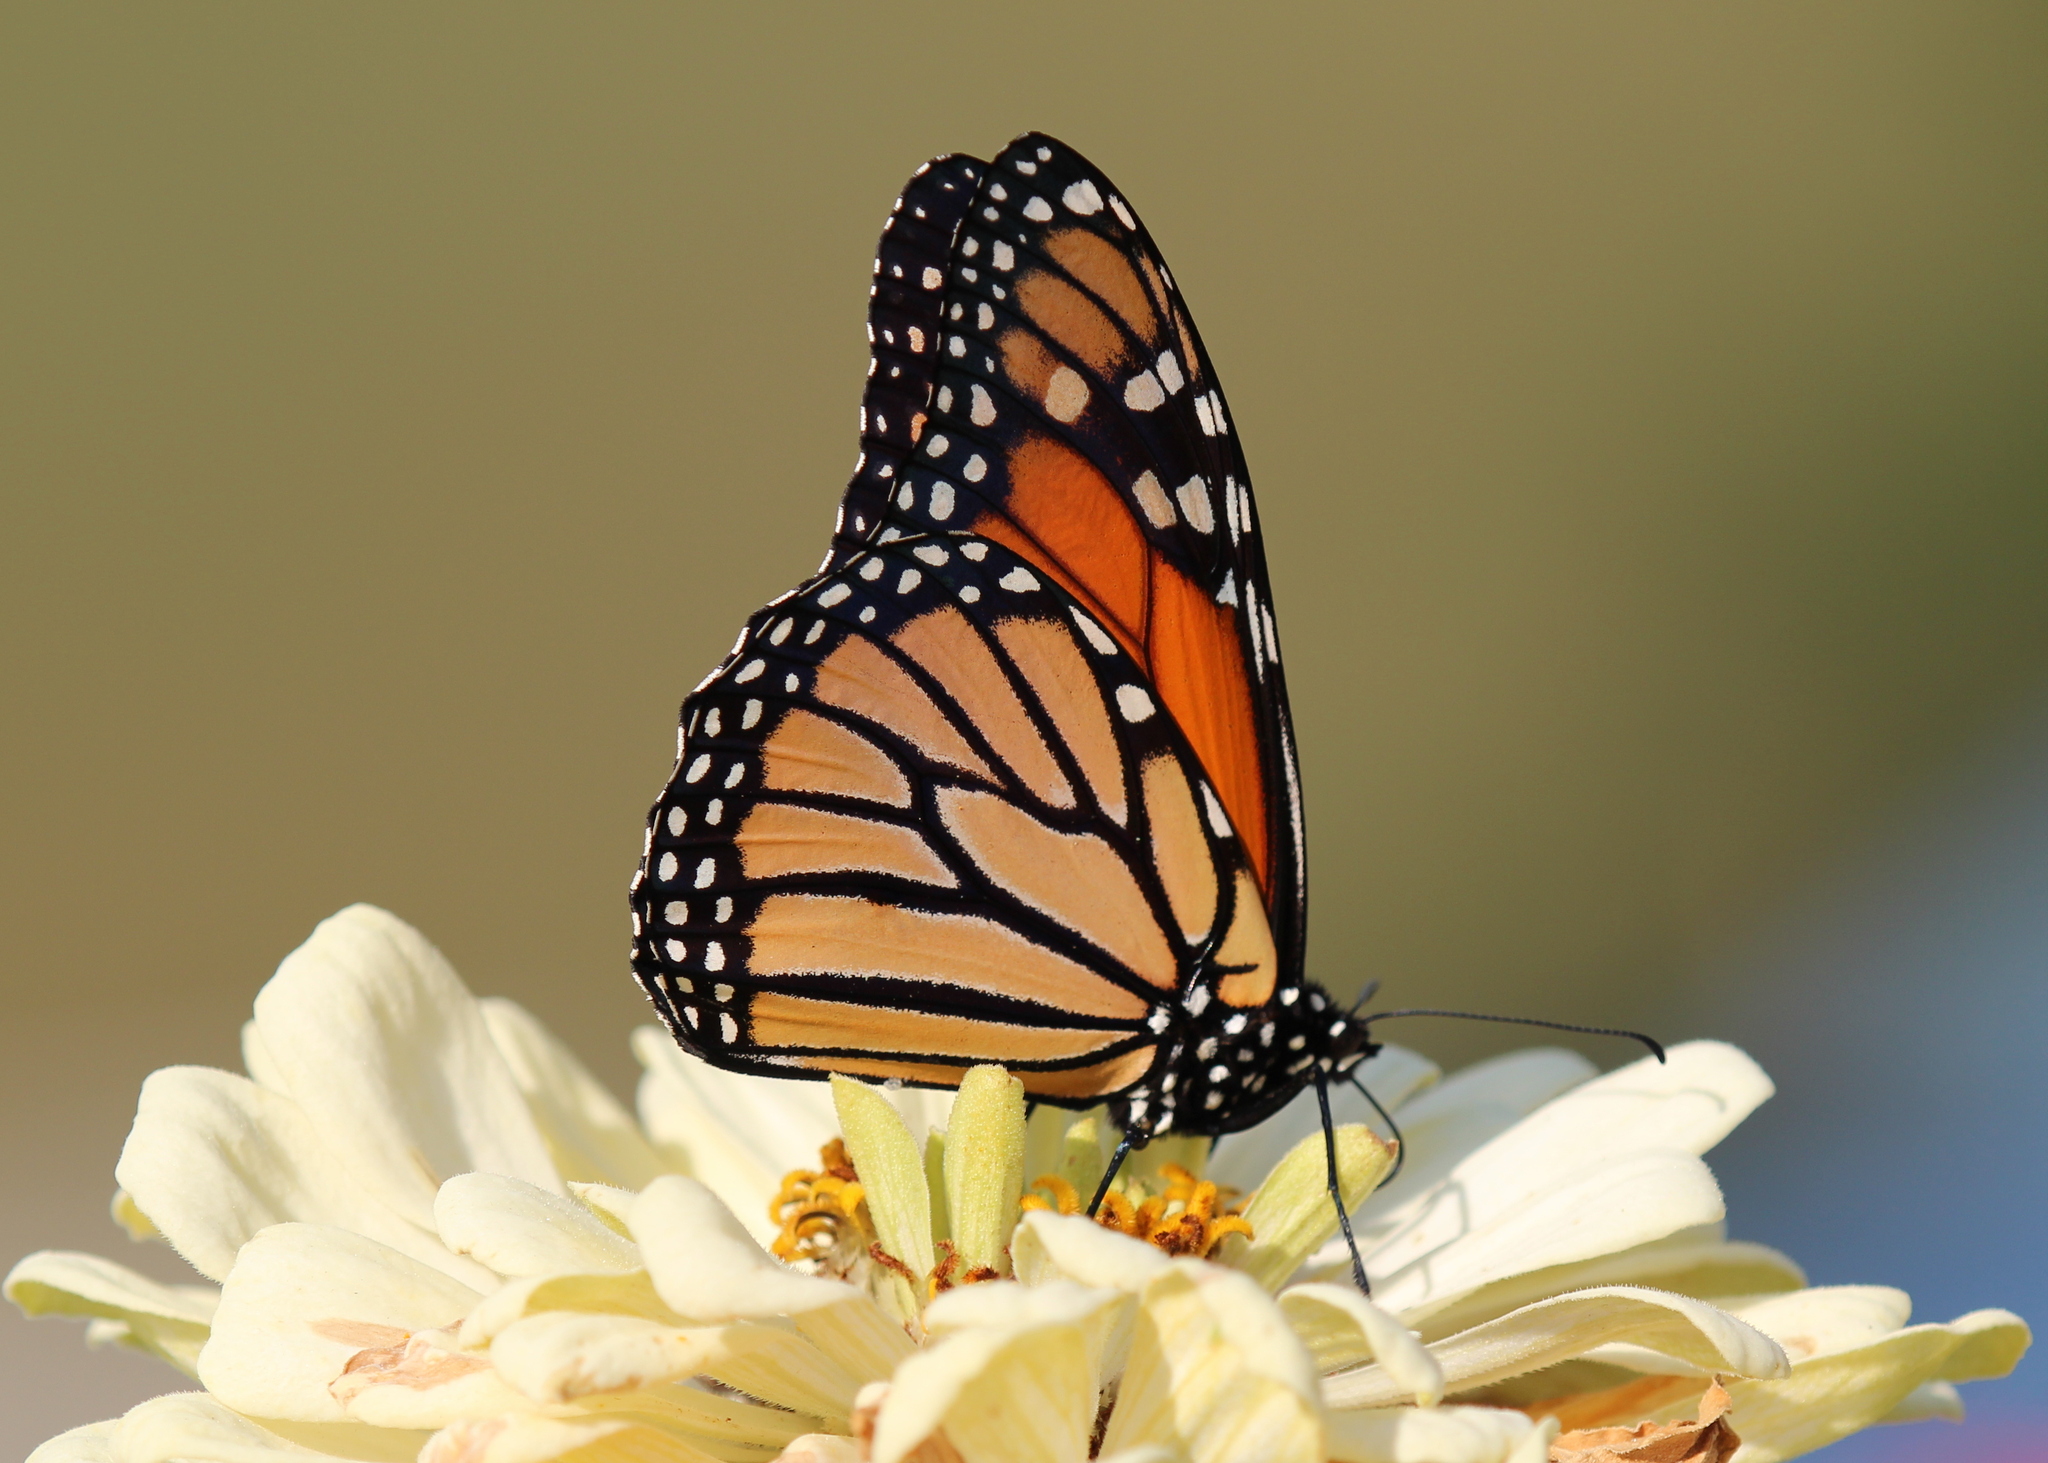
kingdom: Animalia
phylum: Arthropoda
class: Insecta
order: Lepidoptera
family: Nymphalidae
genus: Danaus
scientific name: Danaus plexippus
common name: Monarch
